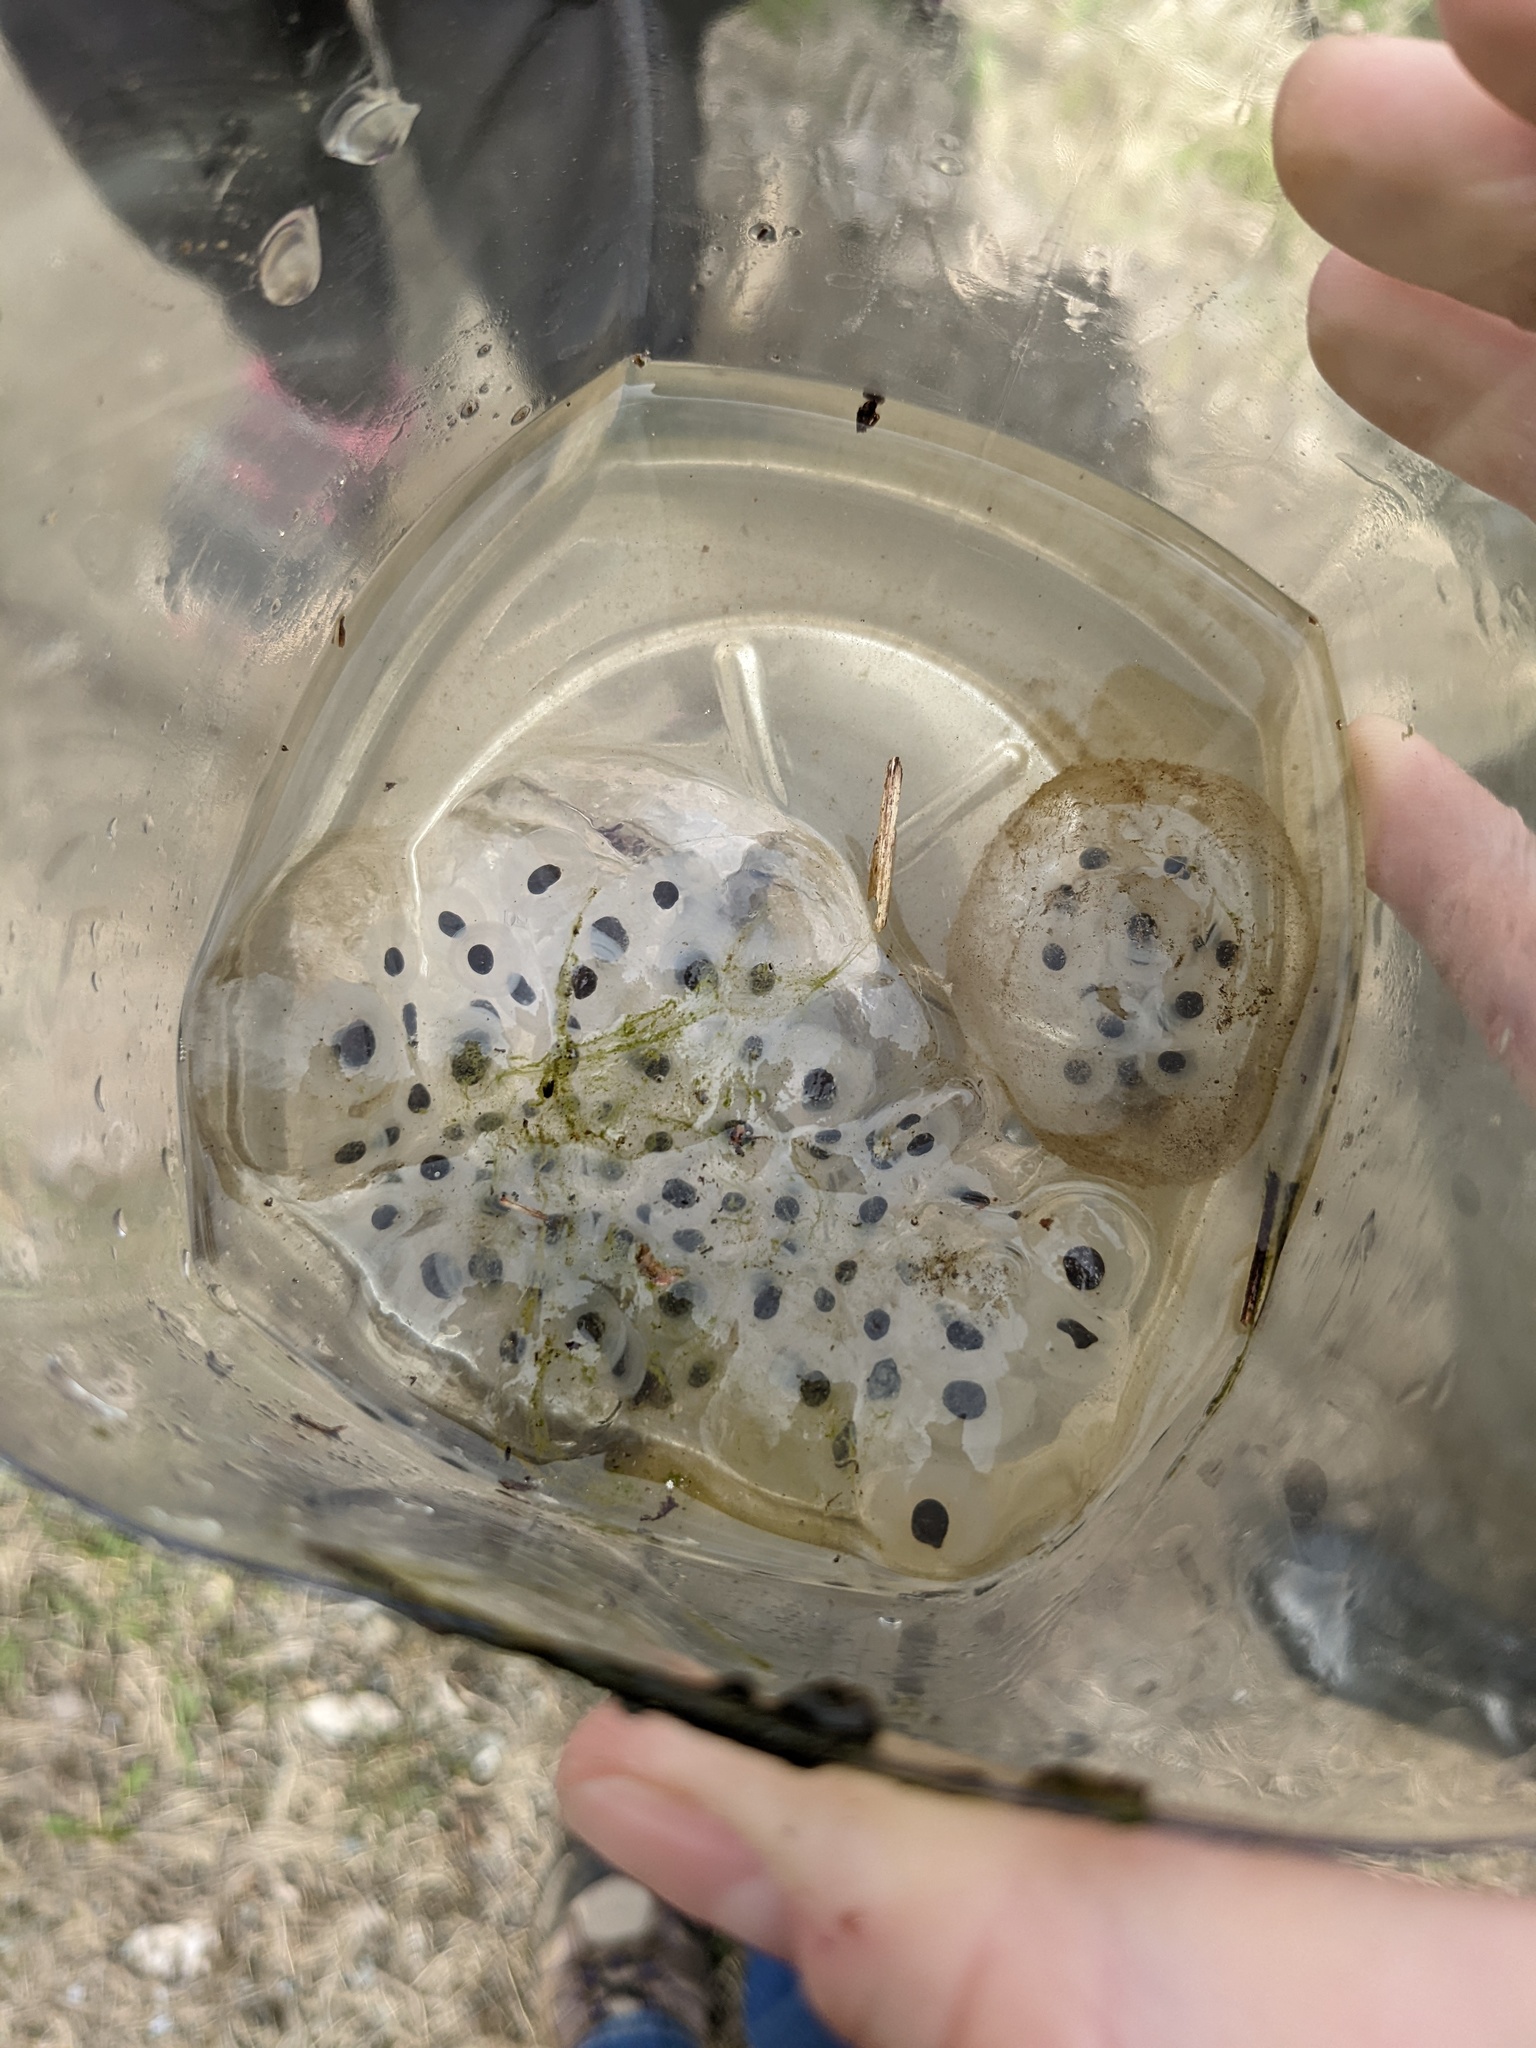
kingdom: Animalia
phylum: Chordata
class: Amphibia
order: Caudata
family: Ambystomatidae
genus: Ambystoma
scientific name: Ambystoma maculatum
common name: Spotted salamander
